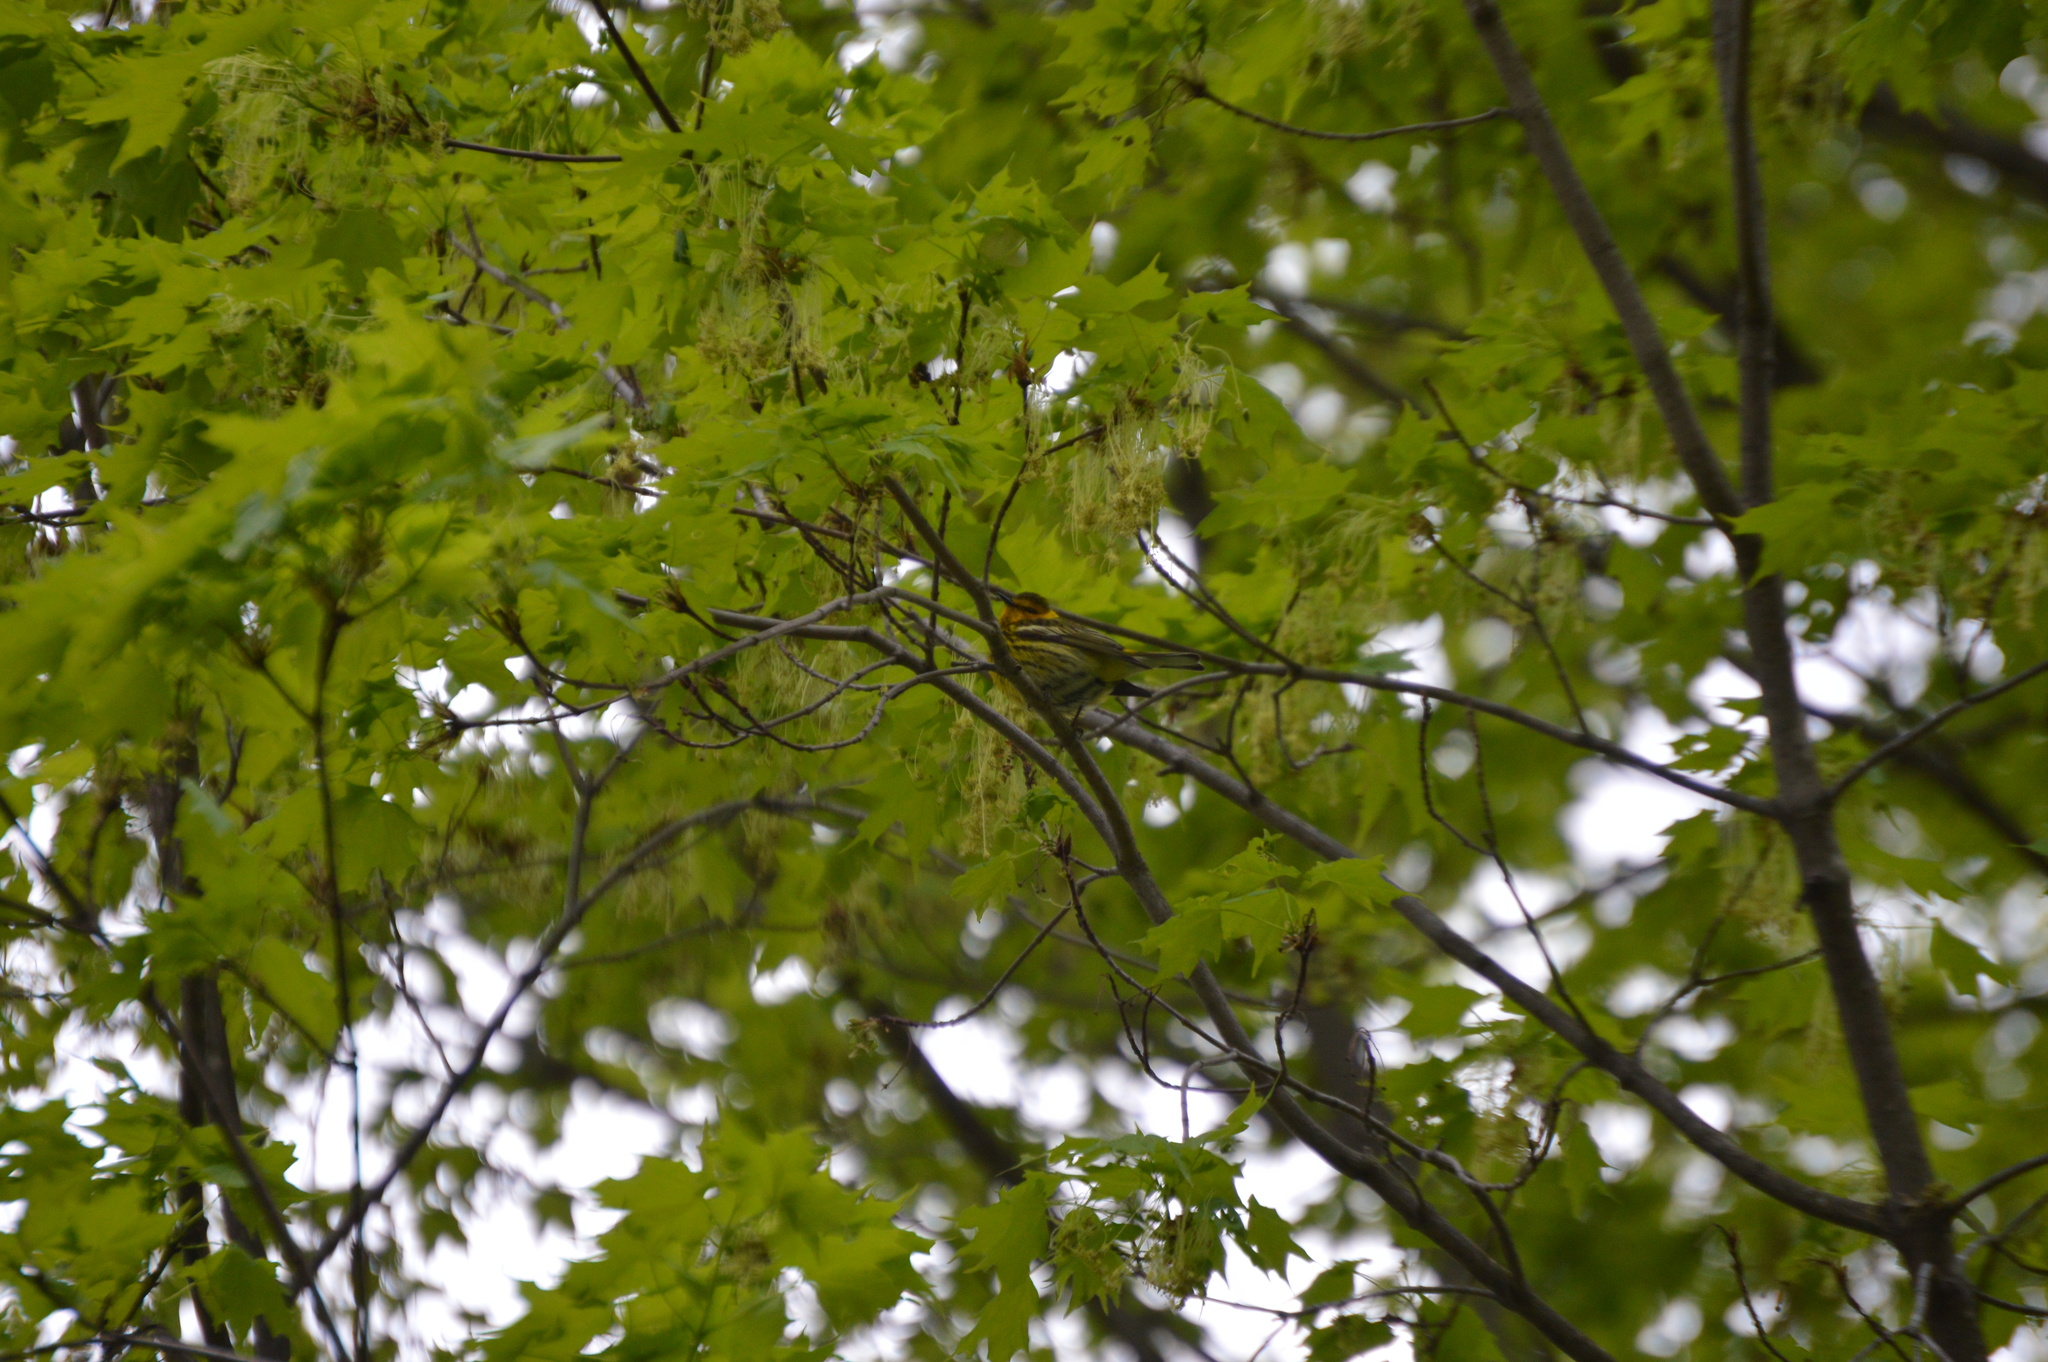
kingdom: Animalia
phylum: Chordata
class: Aves
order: Passeriformes
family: Parulidae
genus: Setophaga
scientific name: Setophaga tigrina
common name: Cape may warbler
